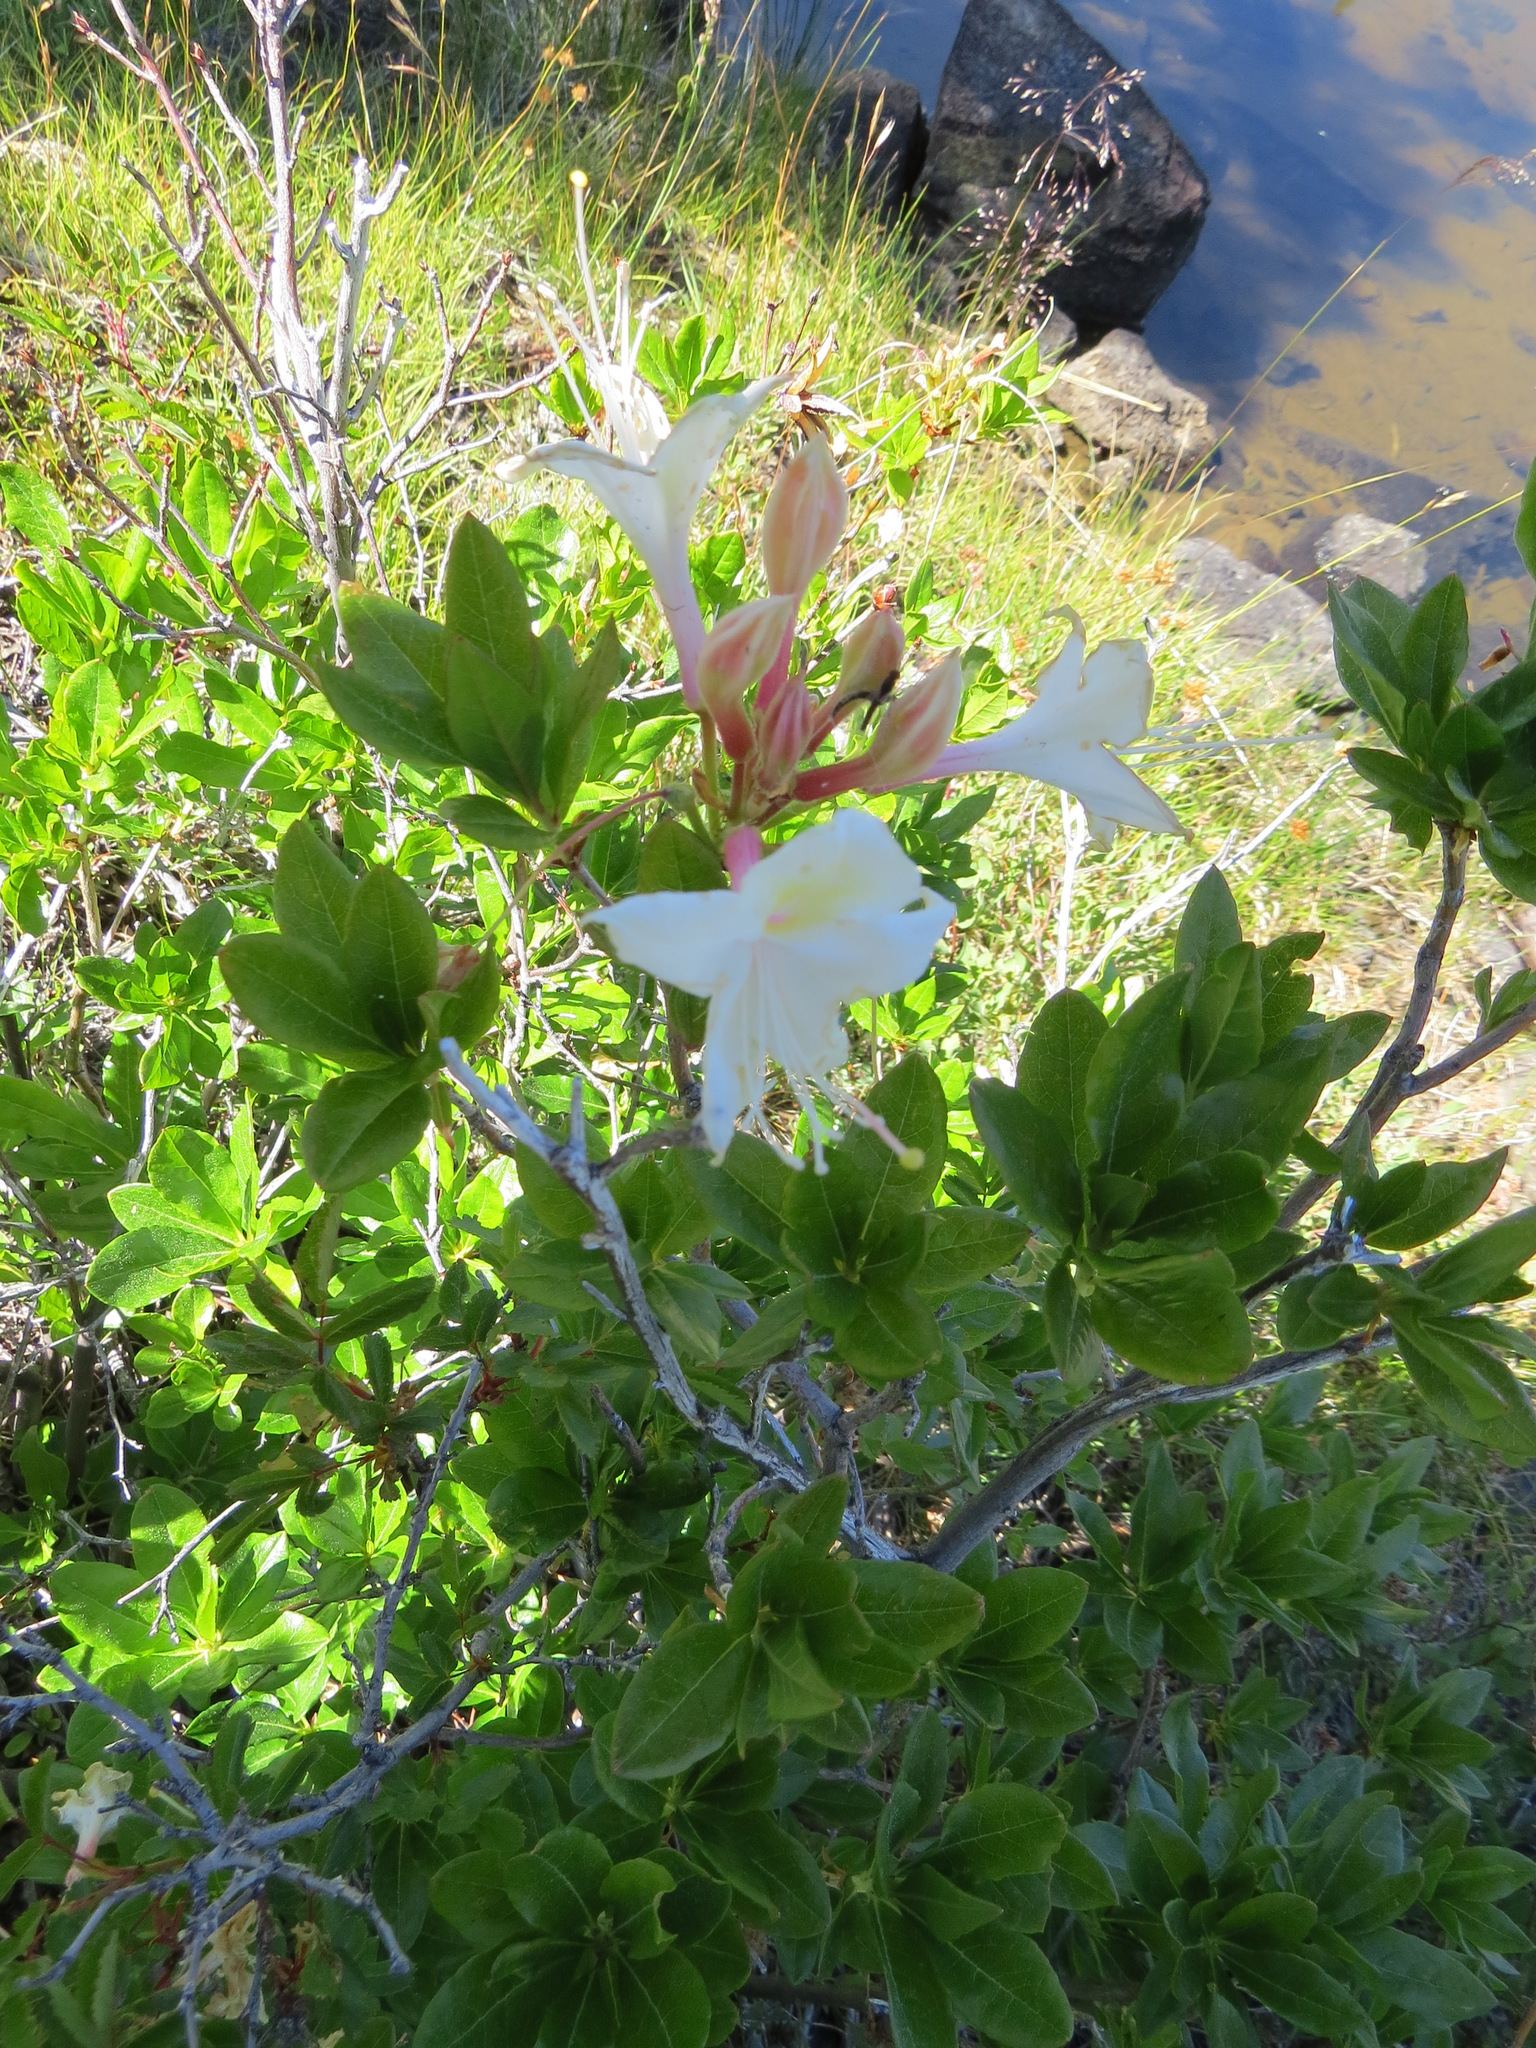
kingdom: Plantae
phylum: Tracheophyta
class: Magnoliopsida
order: Ericales
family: Ericaceae
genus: Rhododendron
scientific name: Rhododendron occidentale
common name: Western azalea
